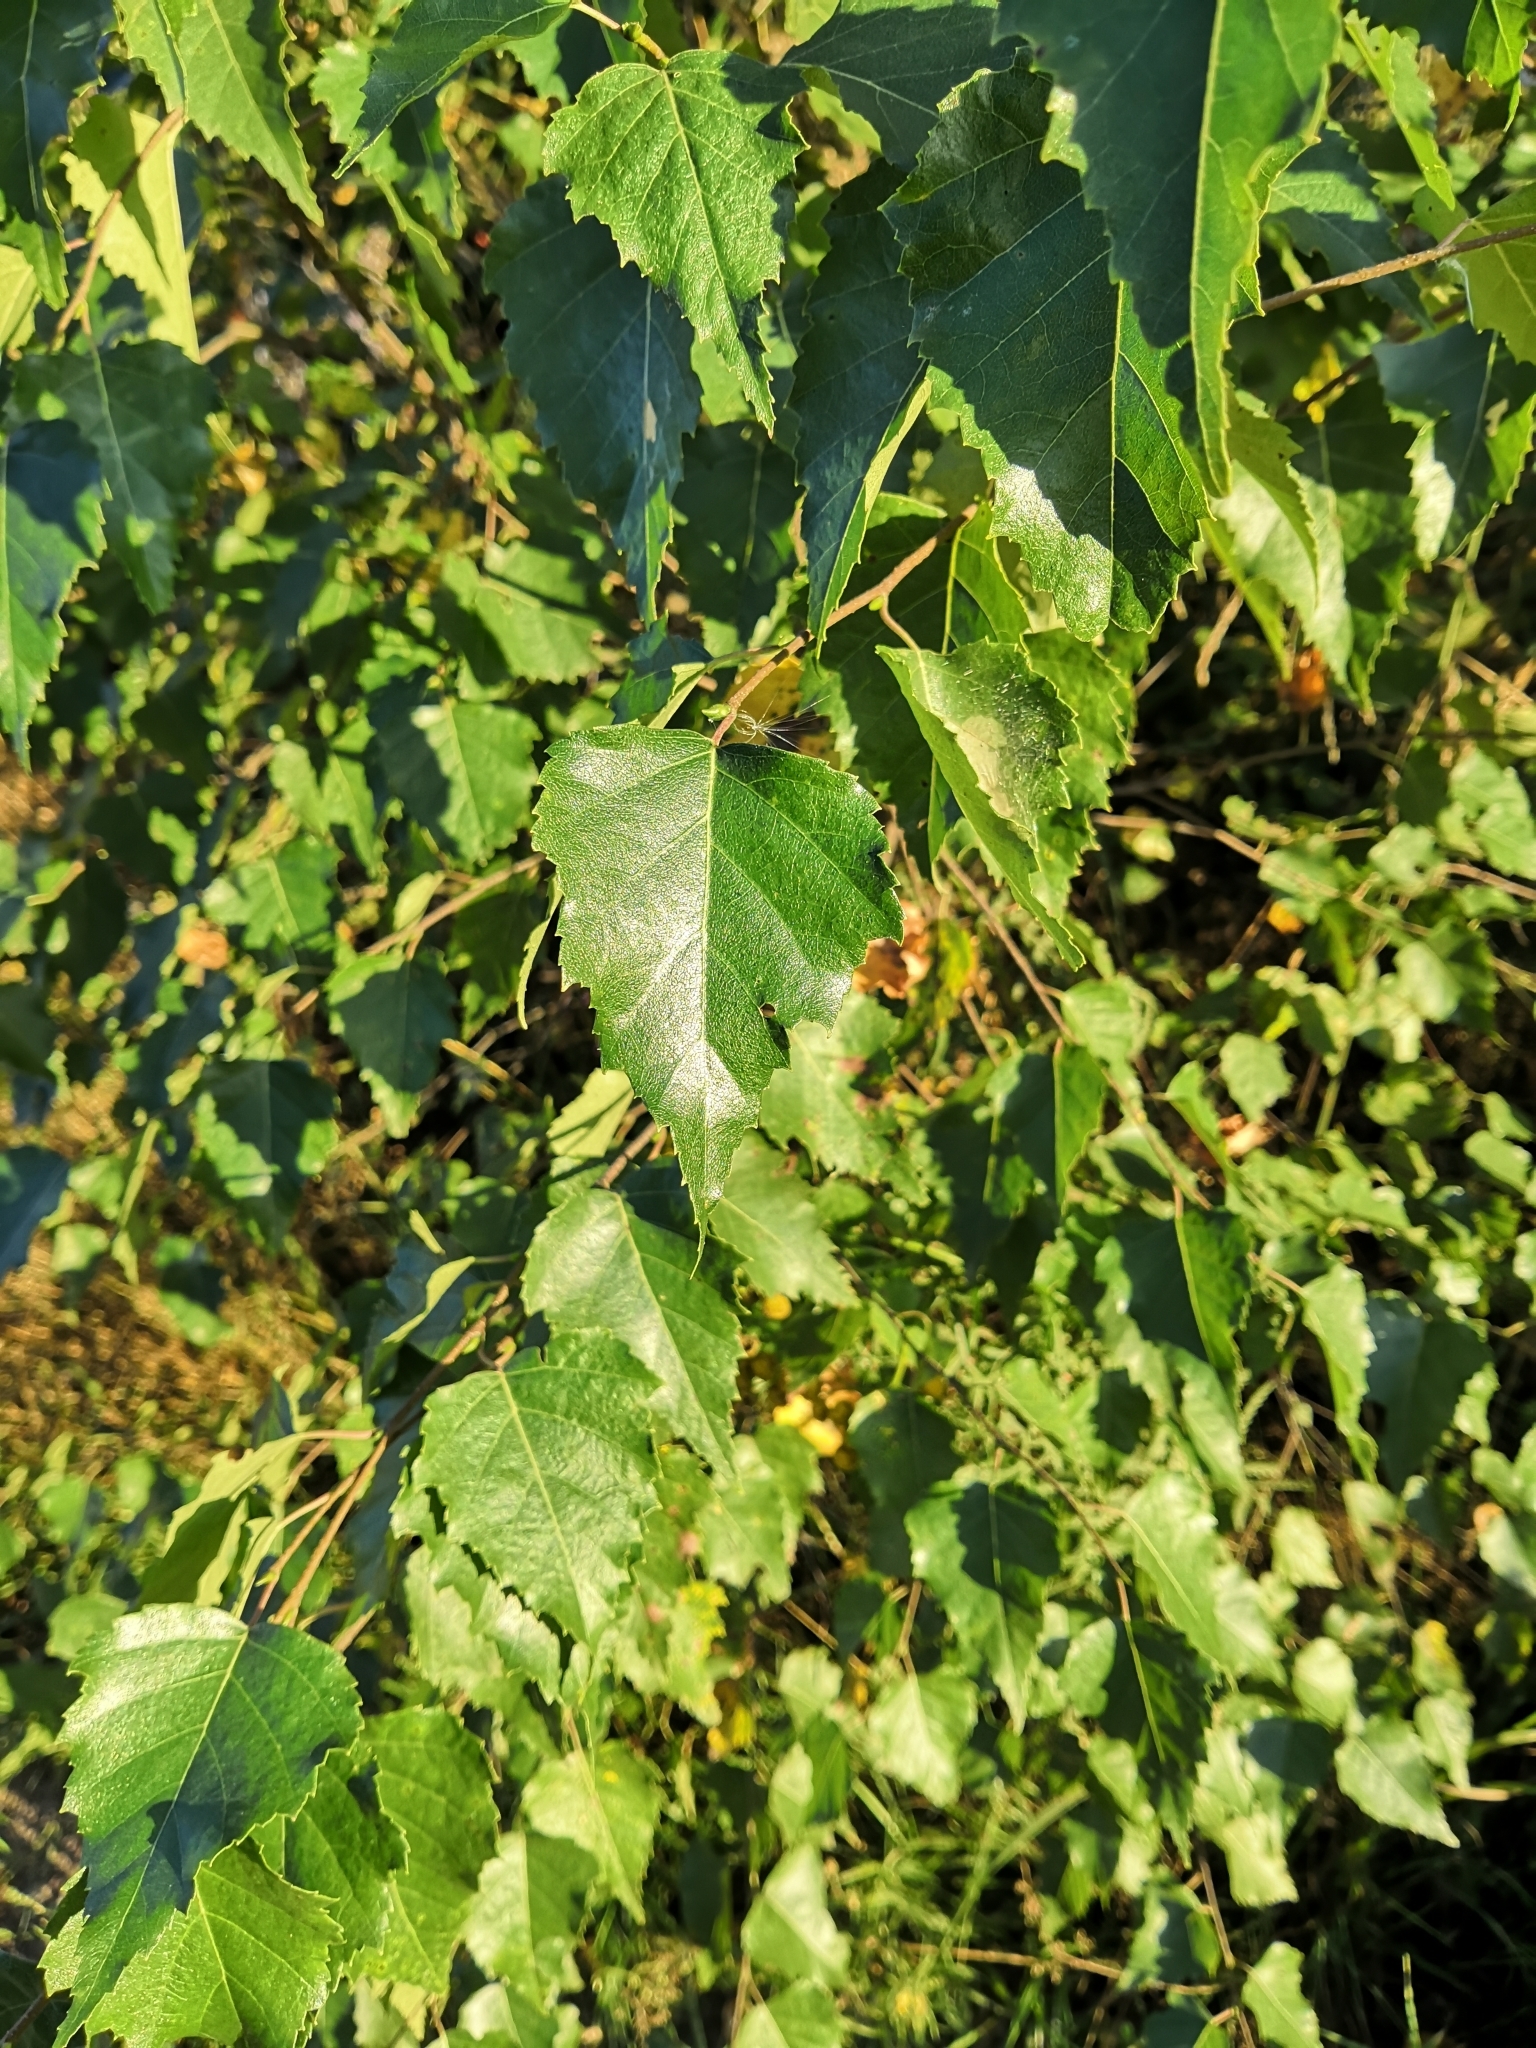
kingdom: Plantae
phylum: Tracheophyta
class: Magnoliopsida
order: Fagales
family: Betulaceae
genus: Betula
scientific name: Betula pendula
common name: Silver birch
